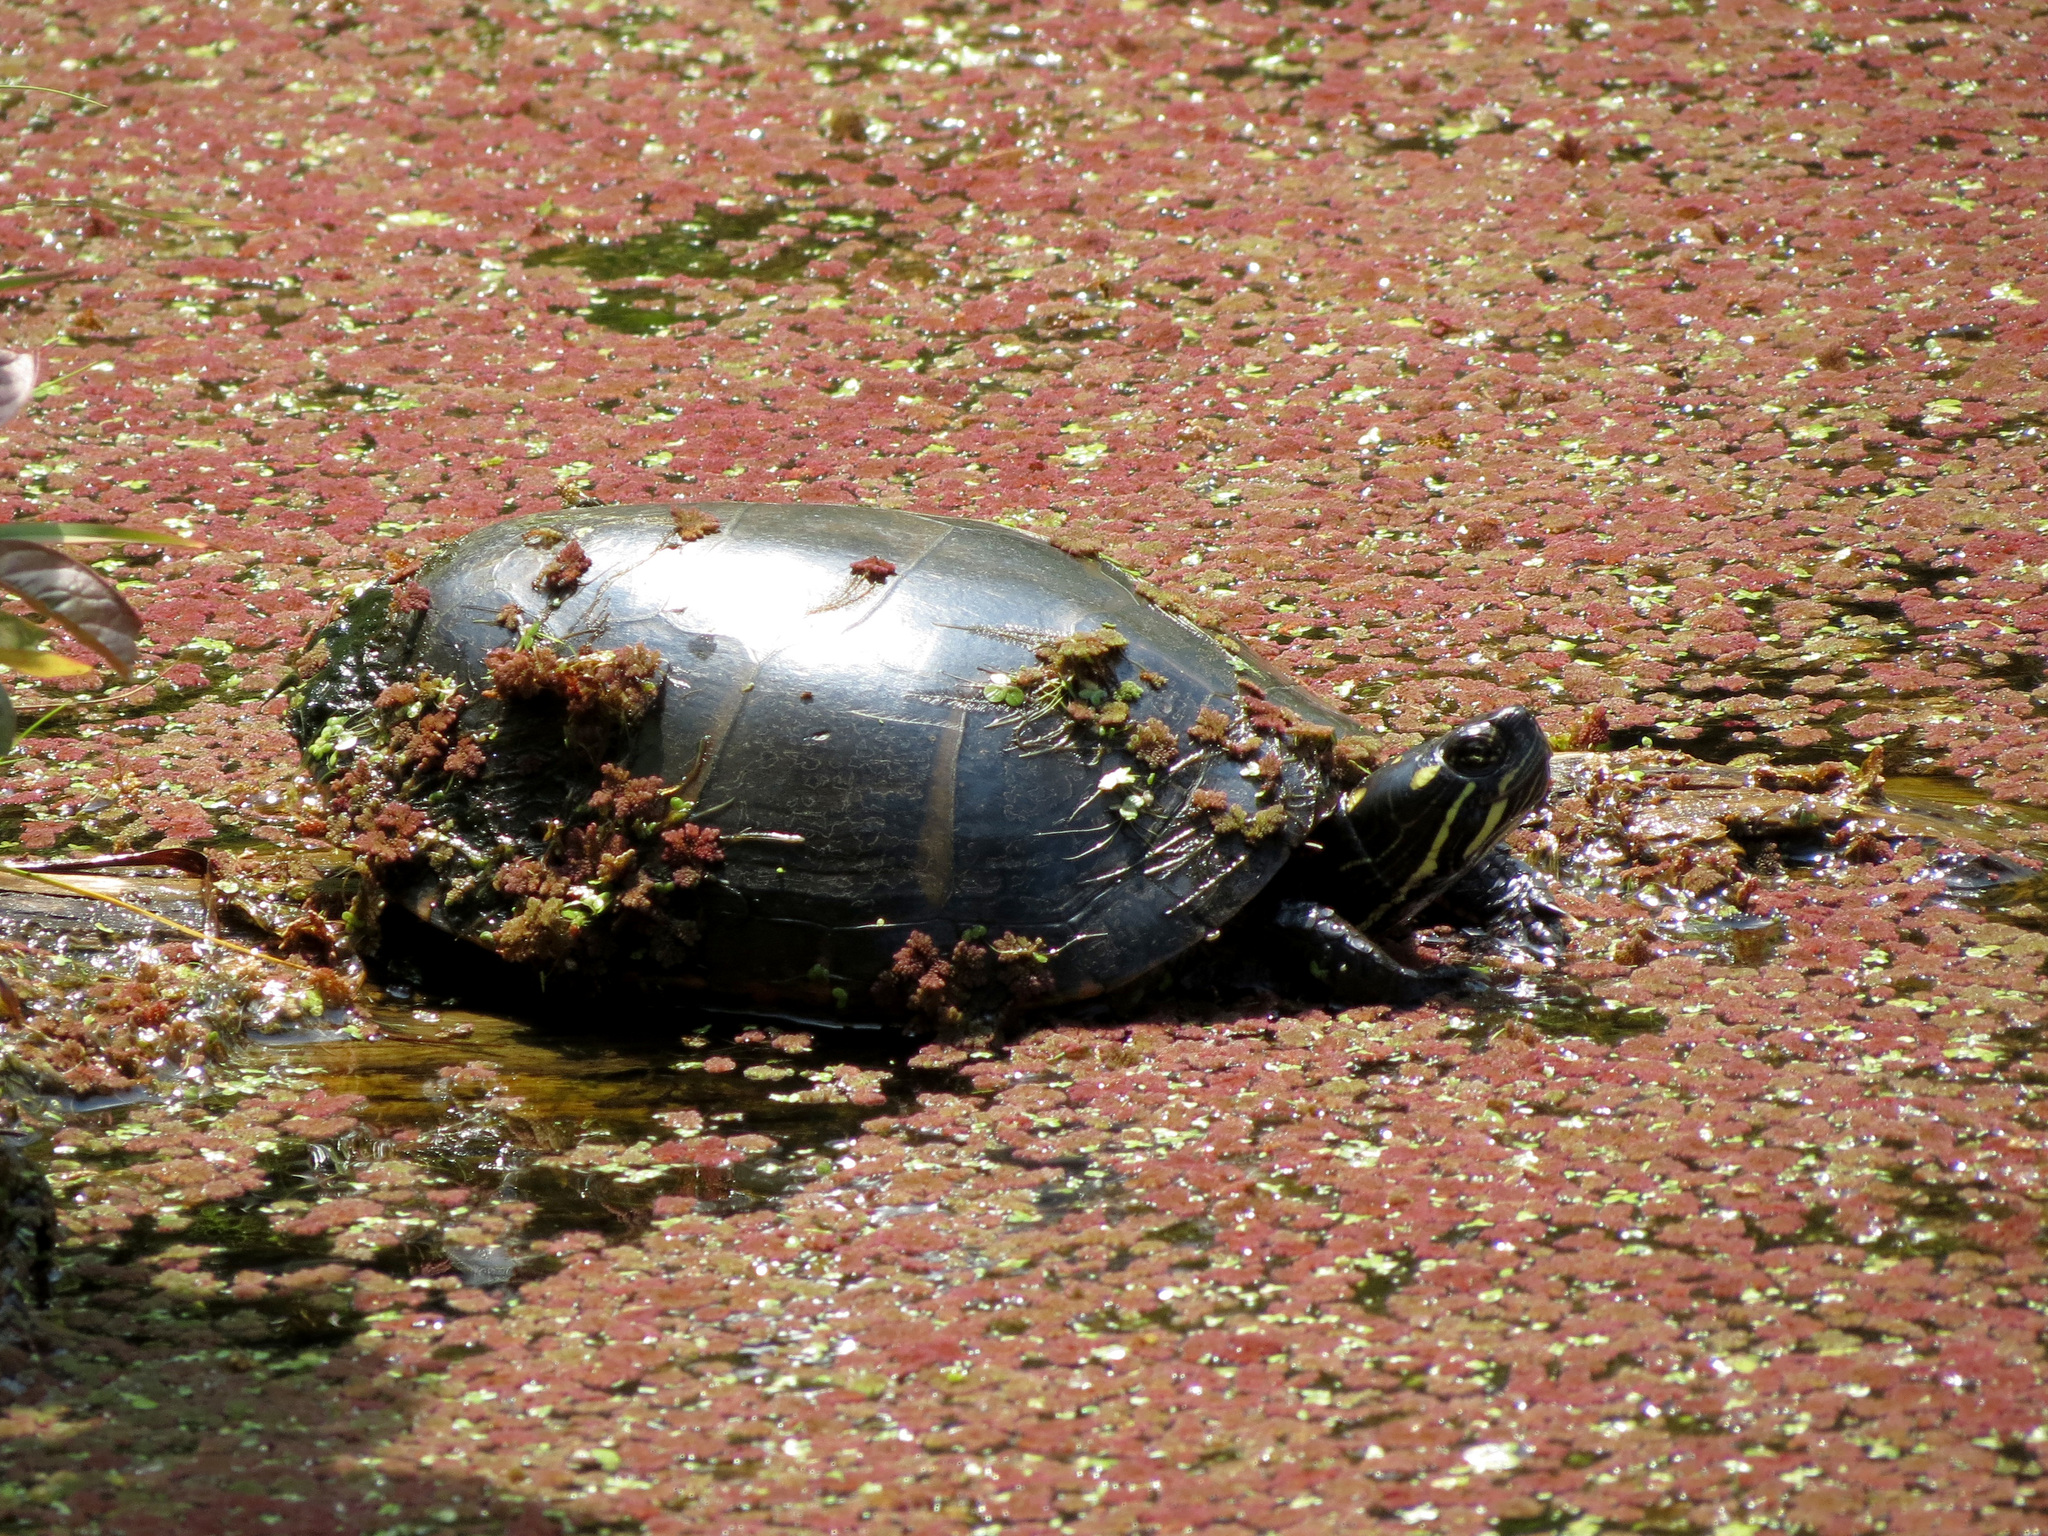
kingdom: Animalia
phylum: Chordata
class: Testudines
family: Emydidae
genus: Chrysemys
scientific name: Chrysemys picta
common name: Painted turtle
